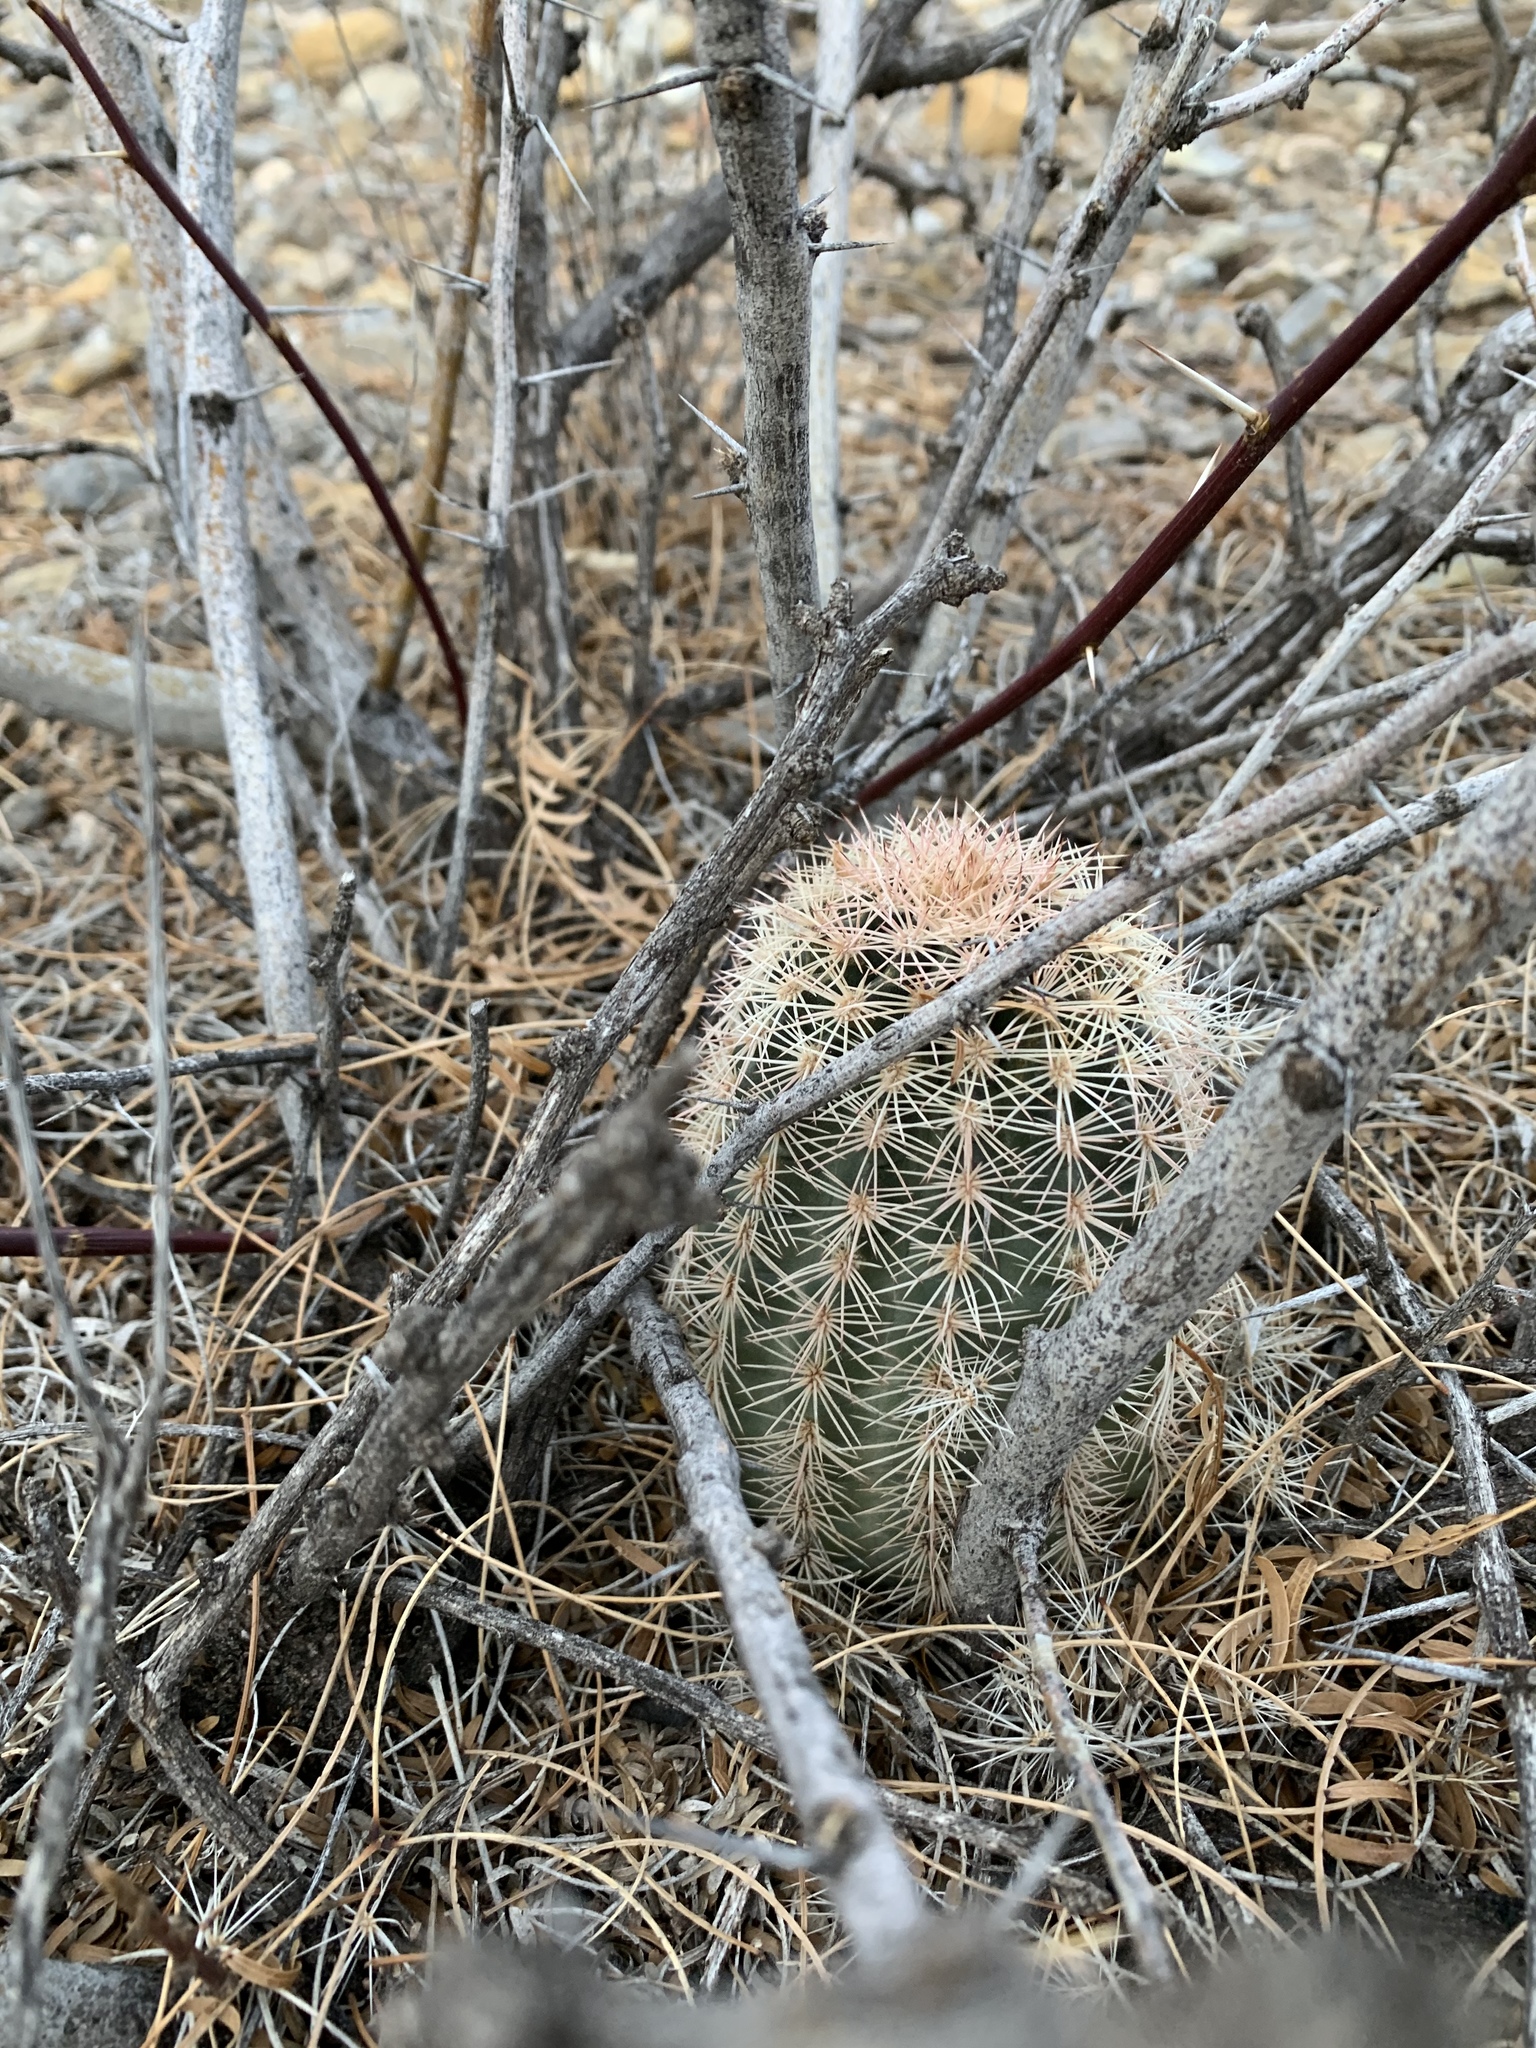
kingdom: Plantae
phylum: Tracheophyta
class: Magnoliopsida
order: Caryophyllales
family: Cactaceae
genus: Echinocereus
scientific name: Echinocereus dasyacanthus
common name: Spiny hedgehog cactus
